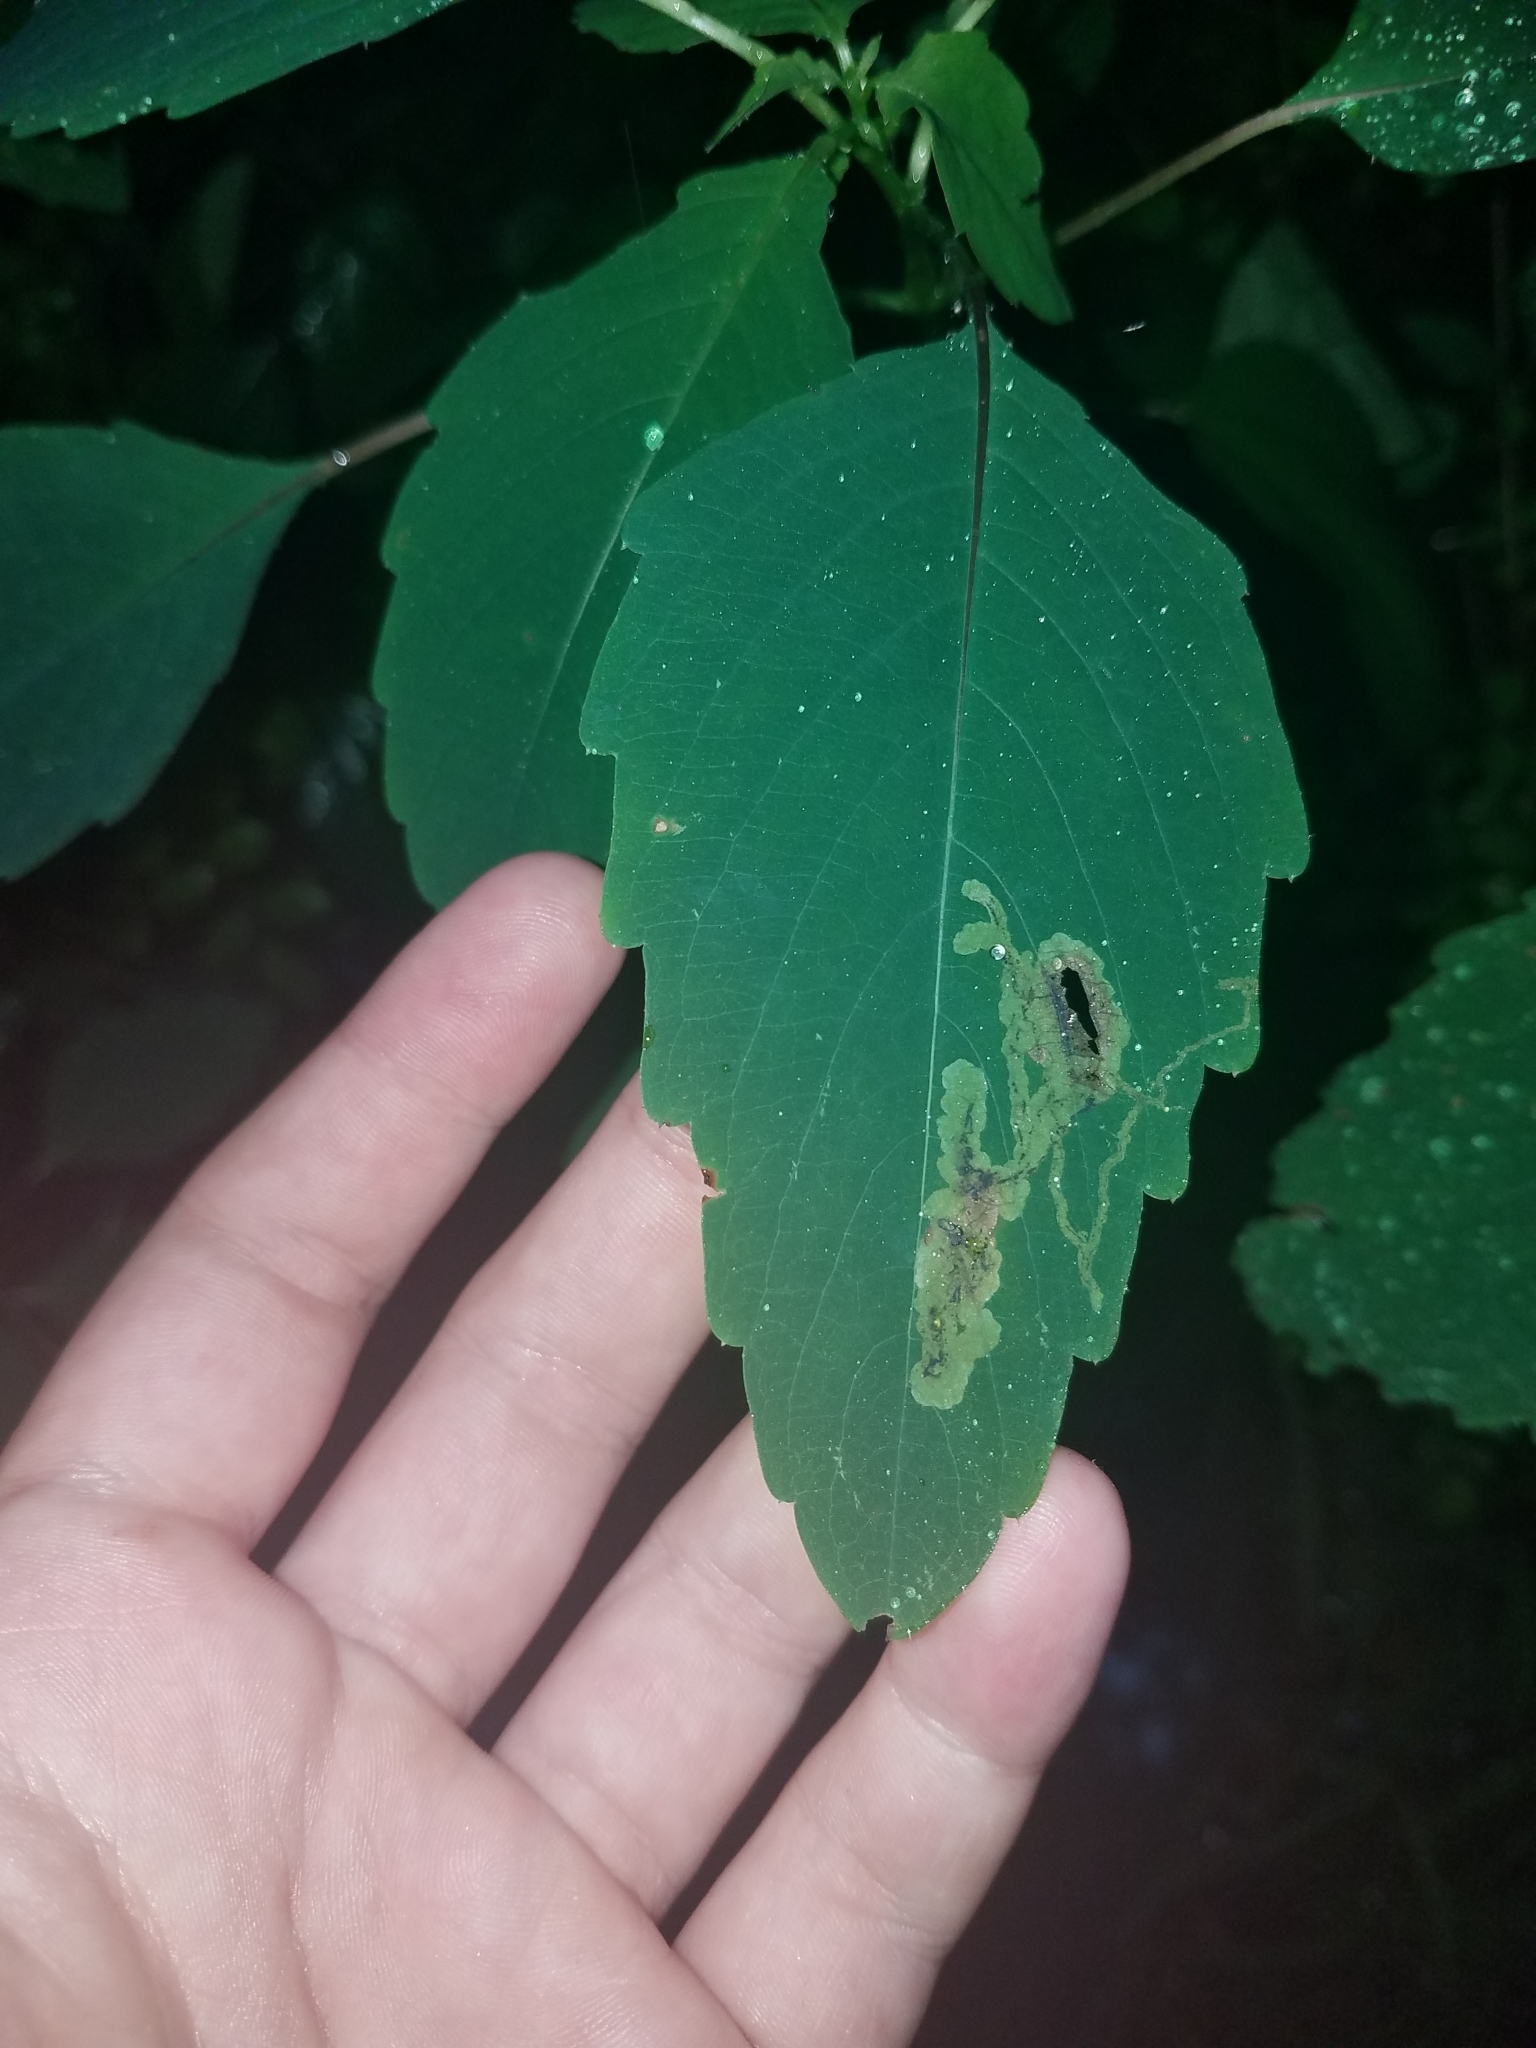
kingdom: Animalia
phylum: Arthropoda
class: Insecta
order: Diptera
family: Agromyzidae
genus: Phytoliriomyza
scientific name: Phytoliriomyza melampyga
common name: Jewelweed leaf-miner fly
